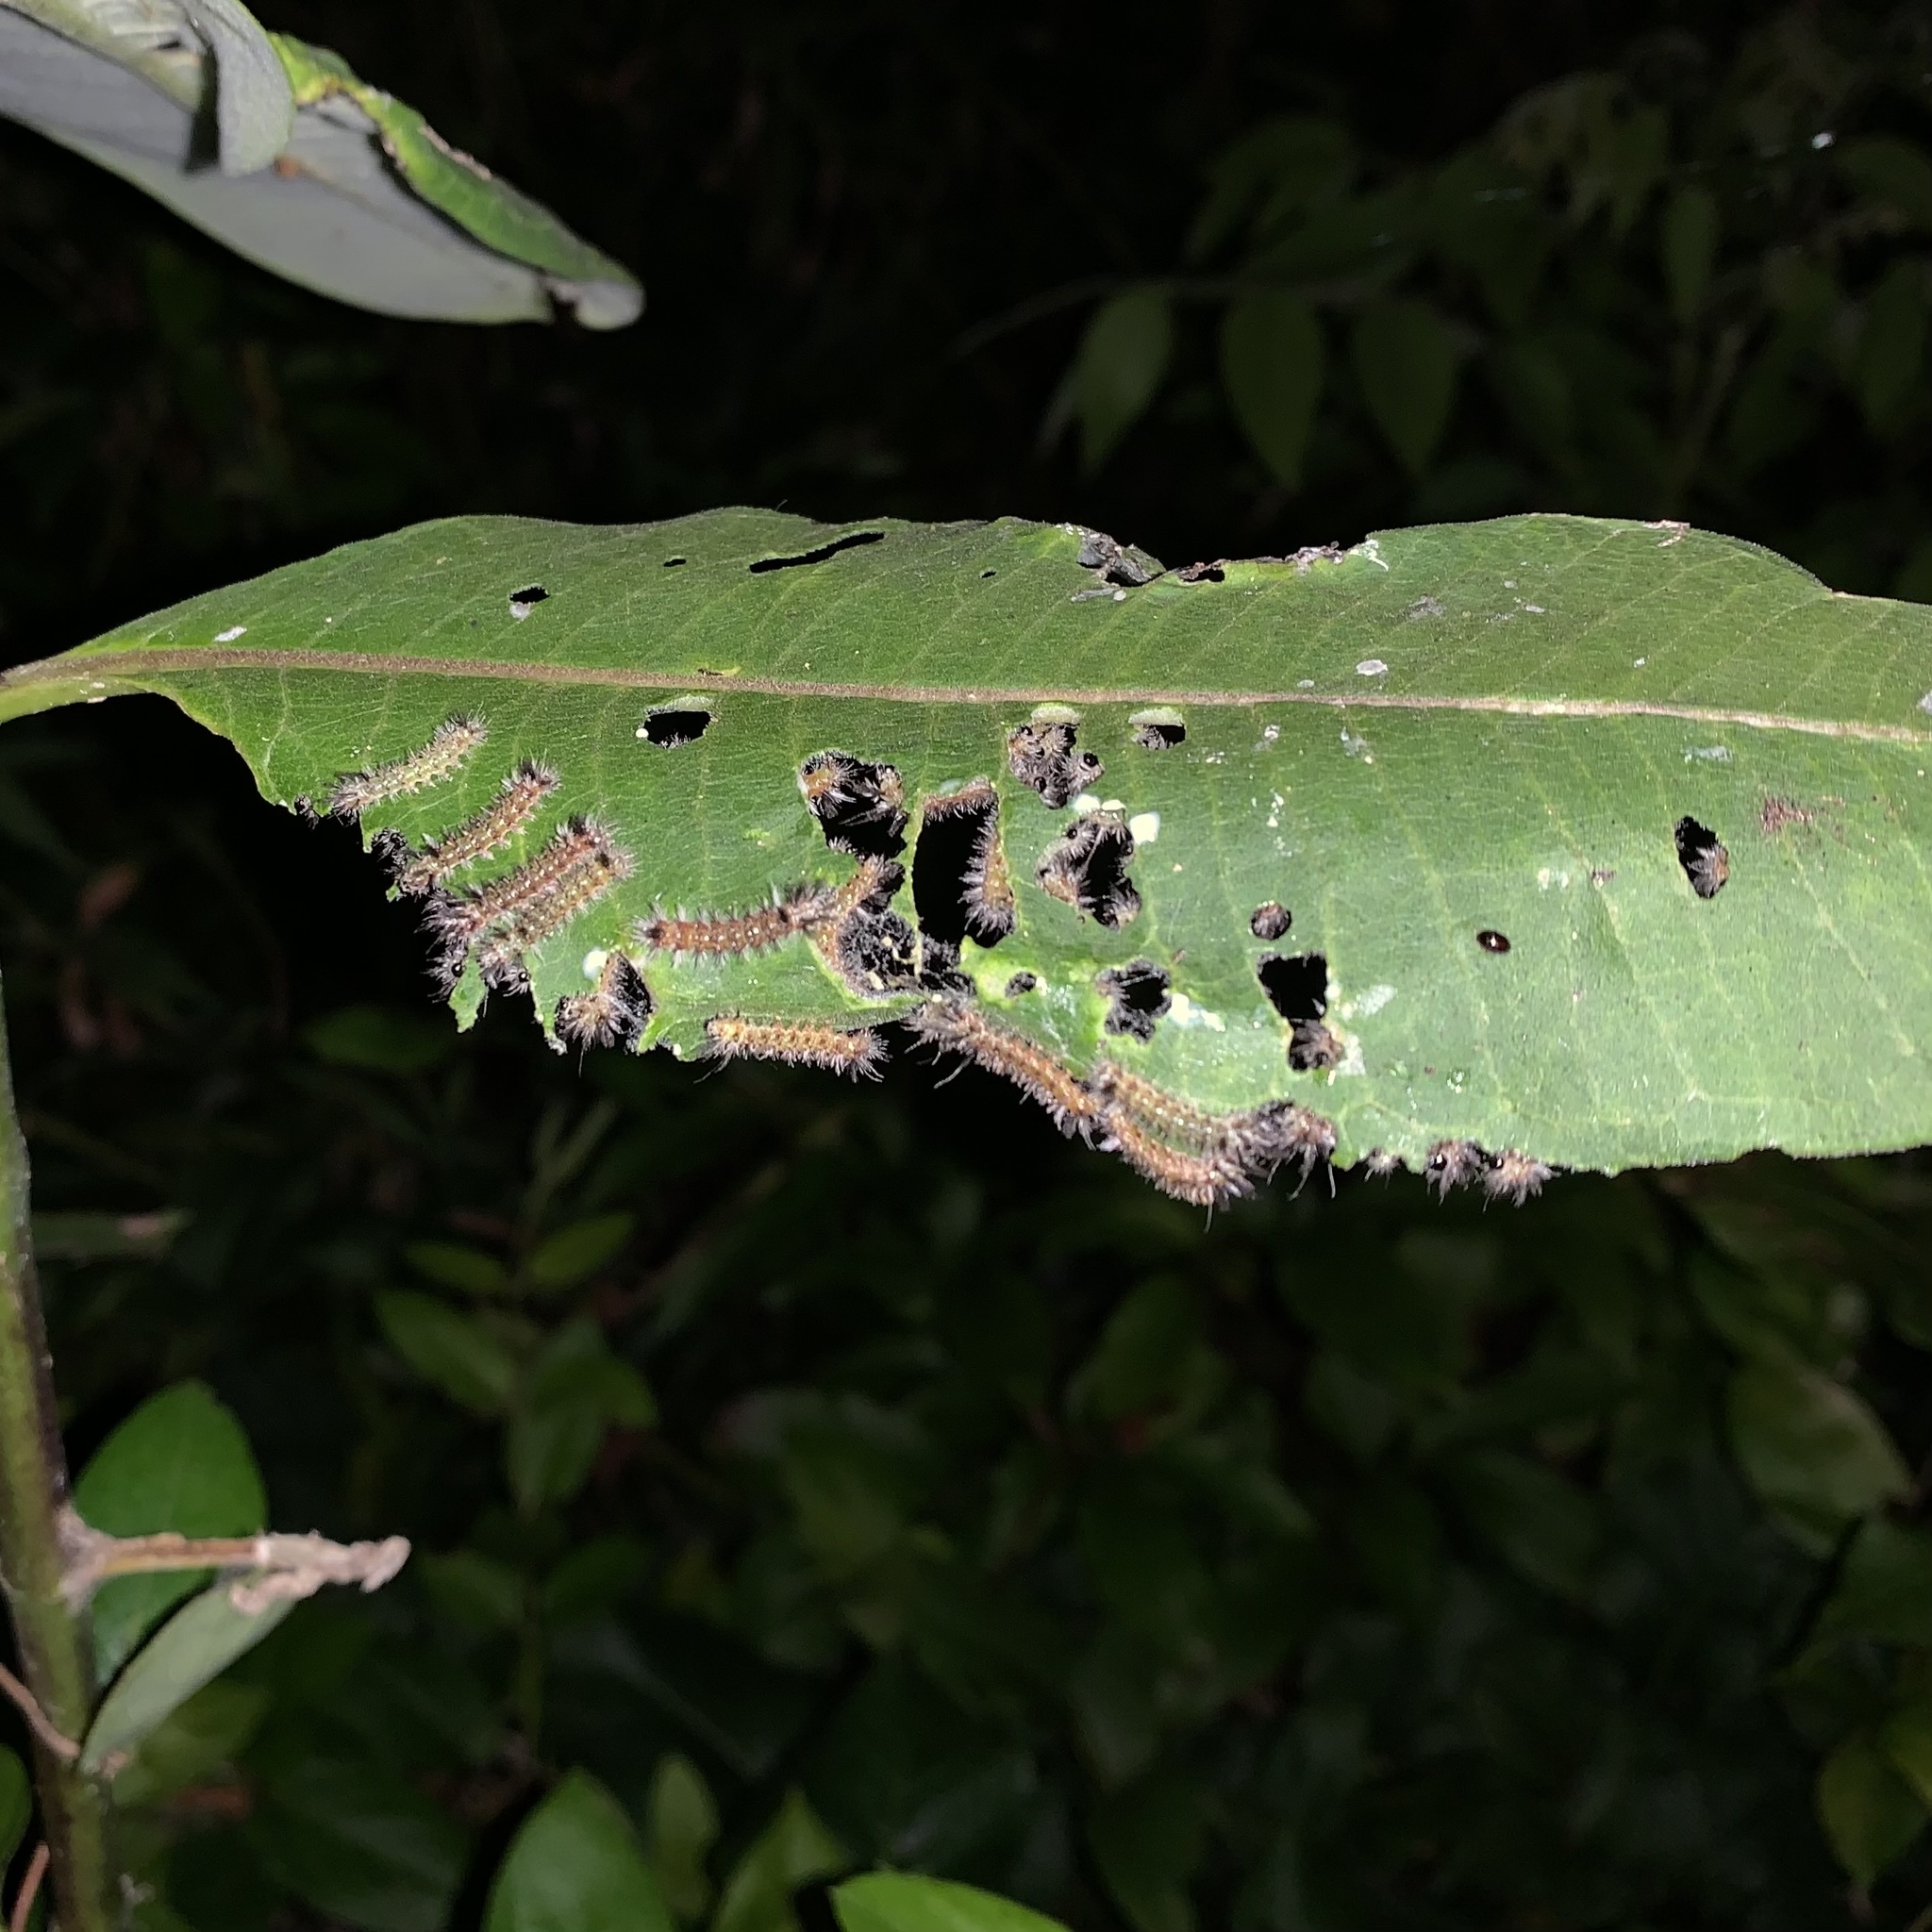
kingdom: Animalia
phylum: Arthropoda
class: Insecta
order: Lepidoptera
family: Erebidae
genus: Euchaetes
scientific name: Euchaetes egle
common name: Milkweed tussock moth
